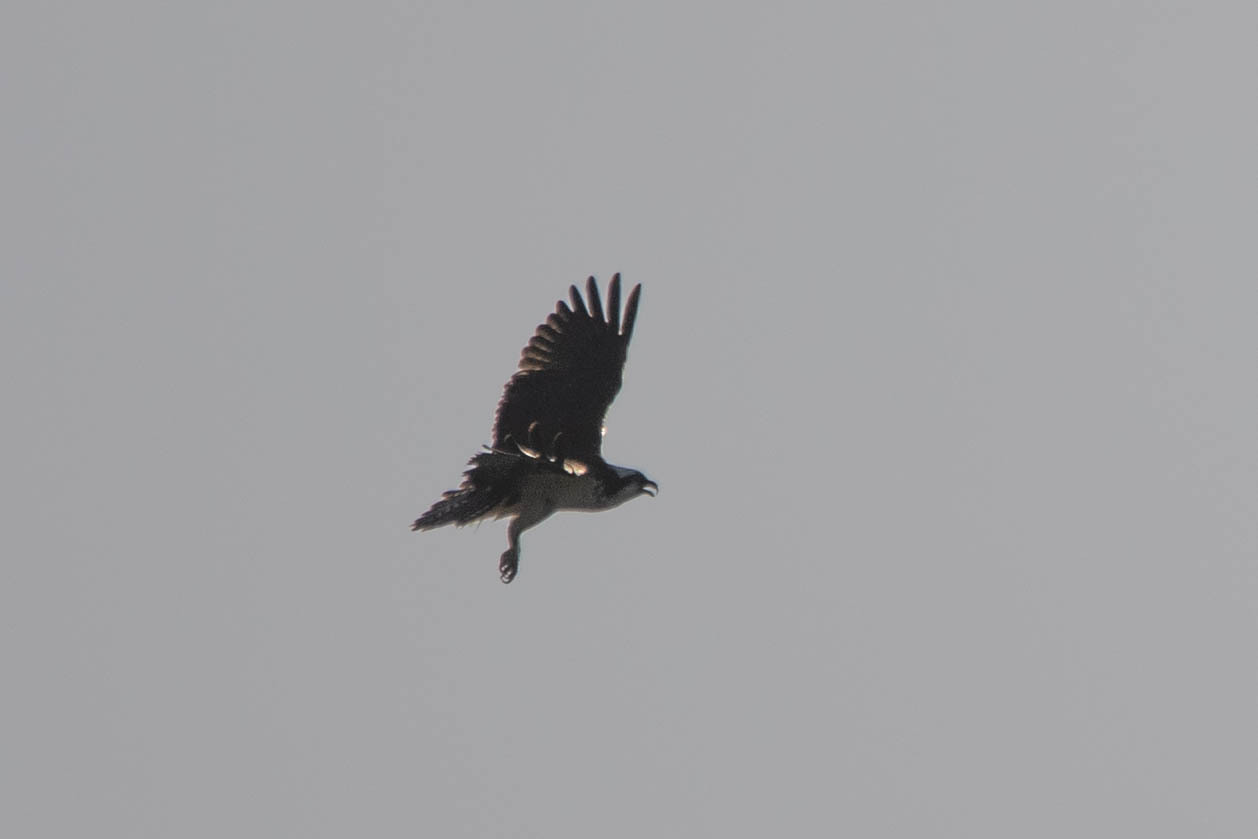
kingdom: Animalia
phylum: Chordata
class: Aves
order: Accipitriformes
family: Pandionidae
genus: Pandion
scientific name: Pandion haliaetus
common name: Osprey
